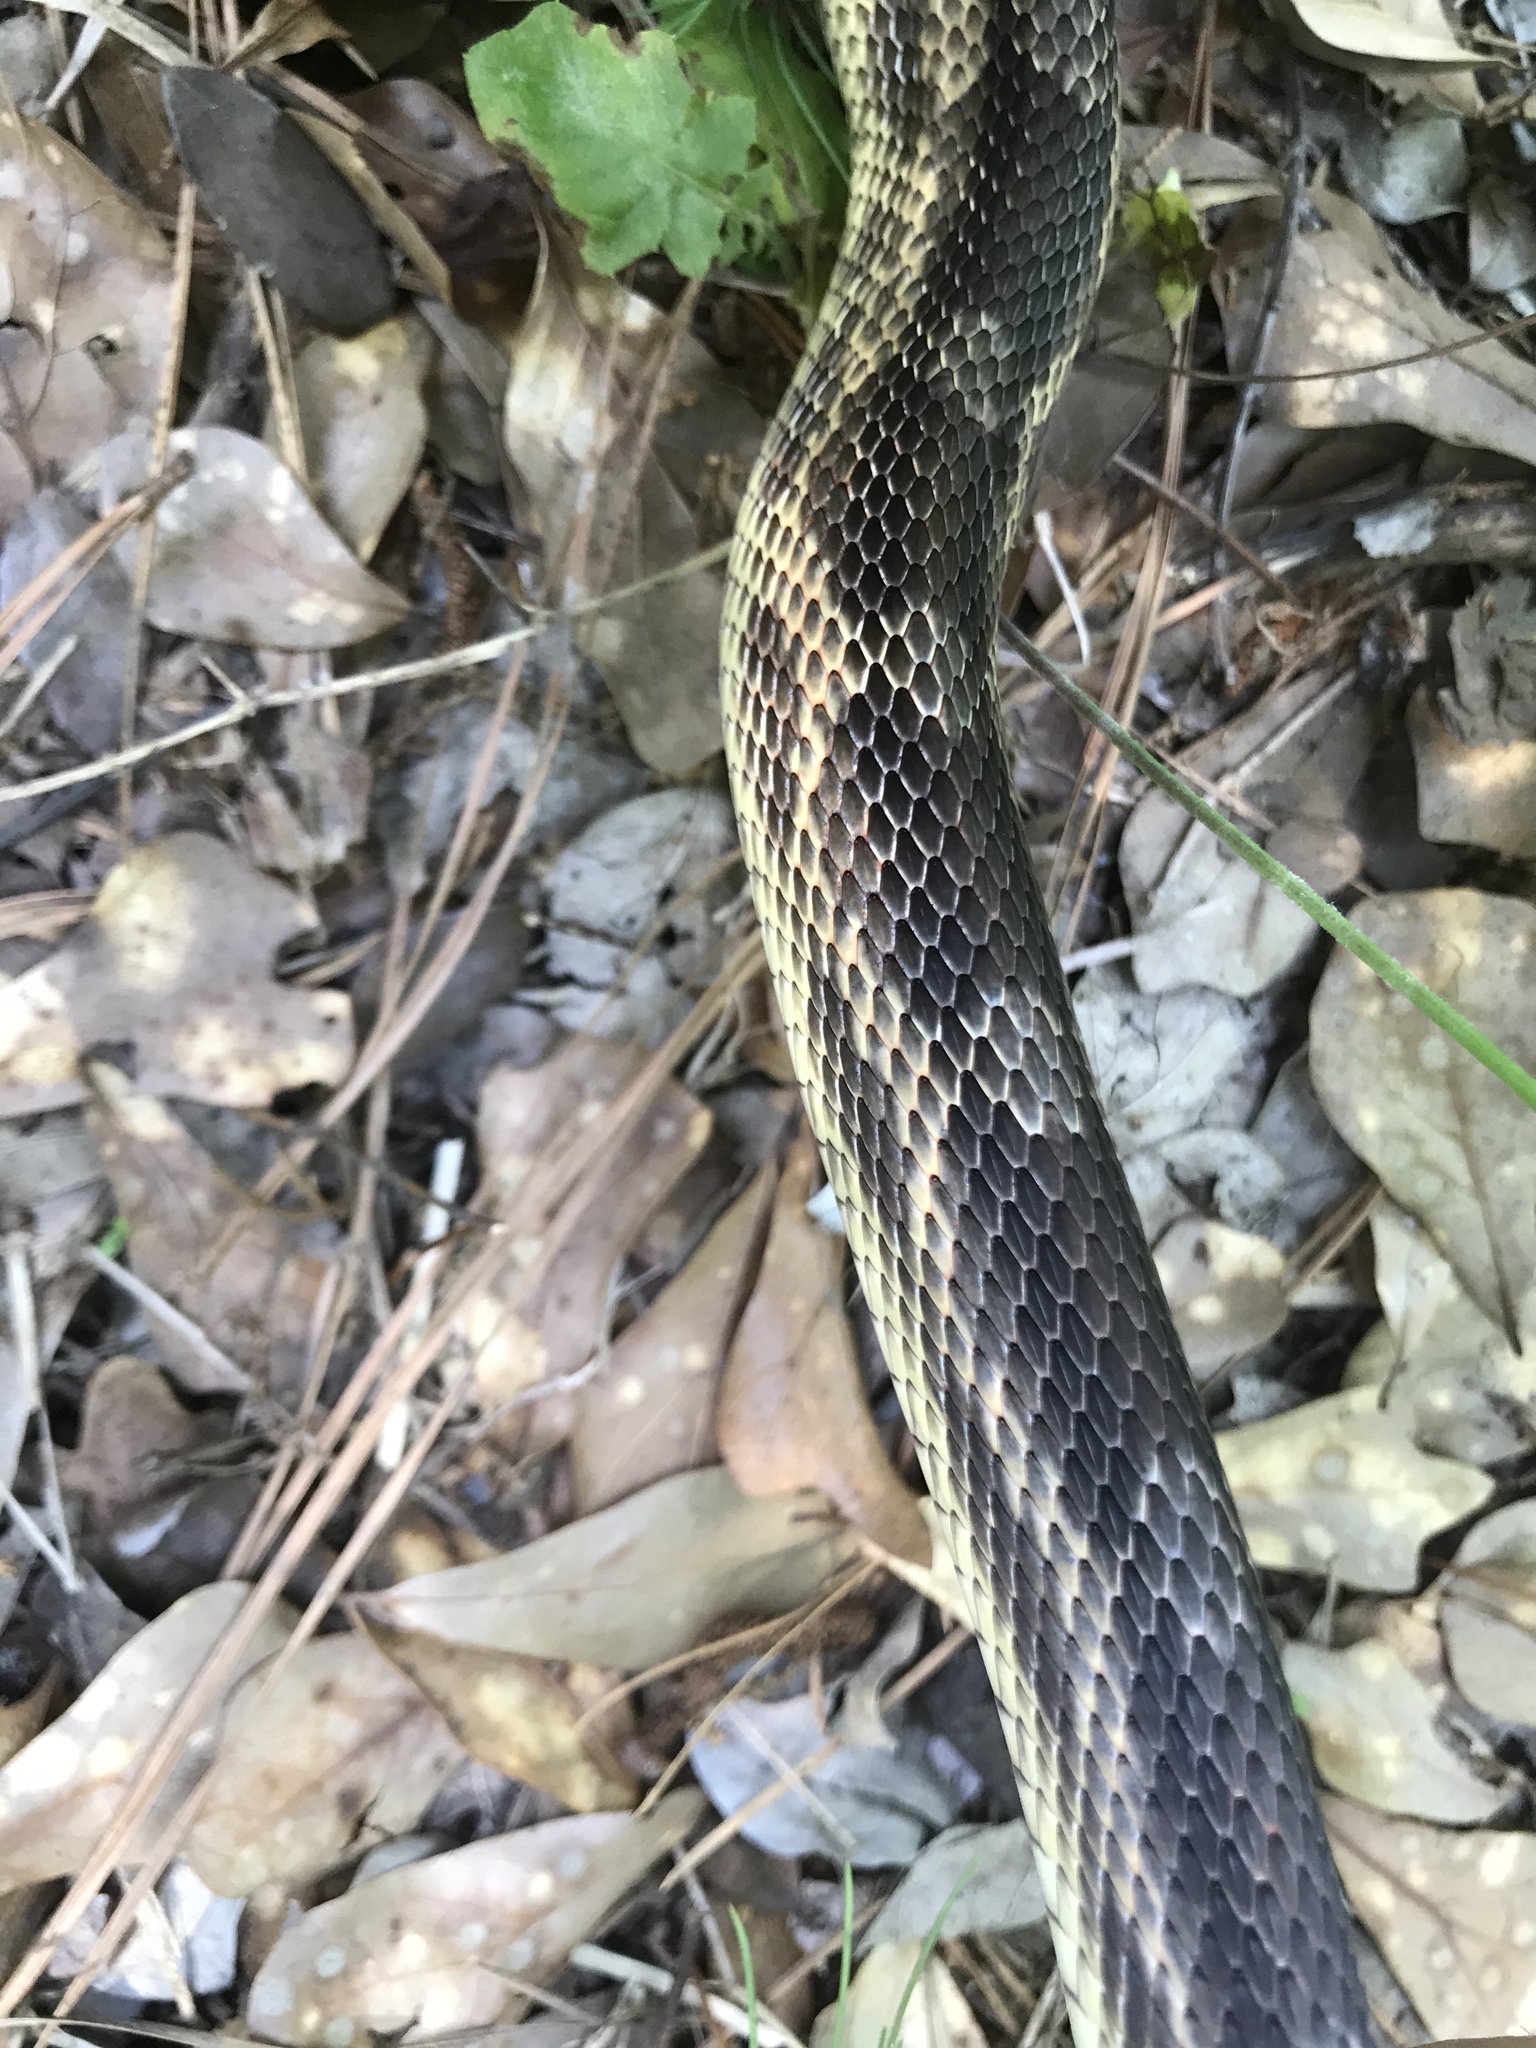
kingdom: Animalia
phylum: Chordata
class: Squamata
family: Colubridae
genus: Pantherophis
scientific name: Pantherophis obsoletus
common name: Black rat snake
